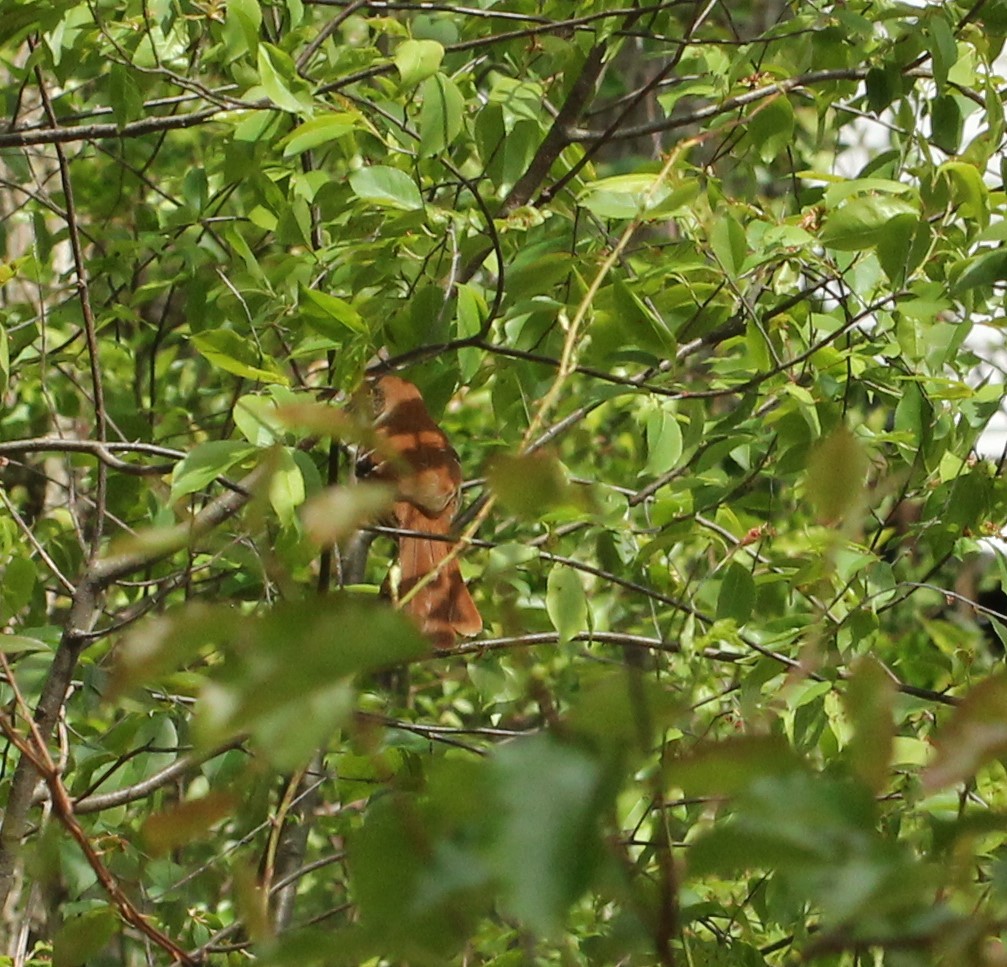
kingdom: Animalia
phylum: Chordata
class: Aves
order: Passeriformes
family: Mimidae
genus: Toxostoma
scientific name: Toxostoma rufum
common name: Brown thrasher
